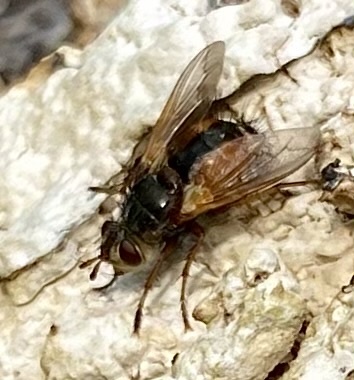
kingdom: Animalia
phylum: Arthropoda
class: Insecta
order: Diptera
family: Tachinidae
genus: Tachina
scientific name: Tachina fera
